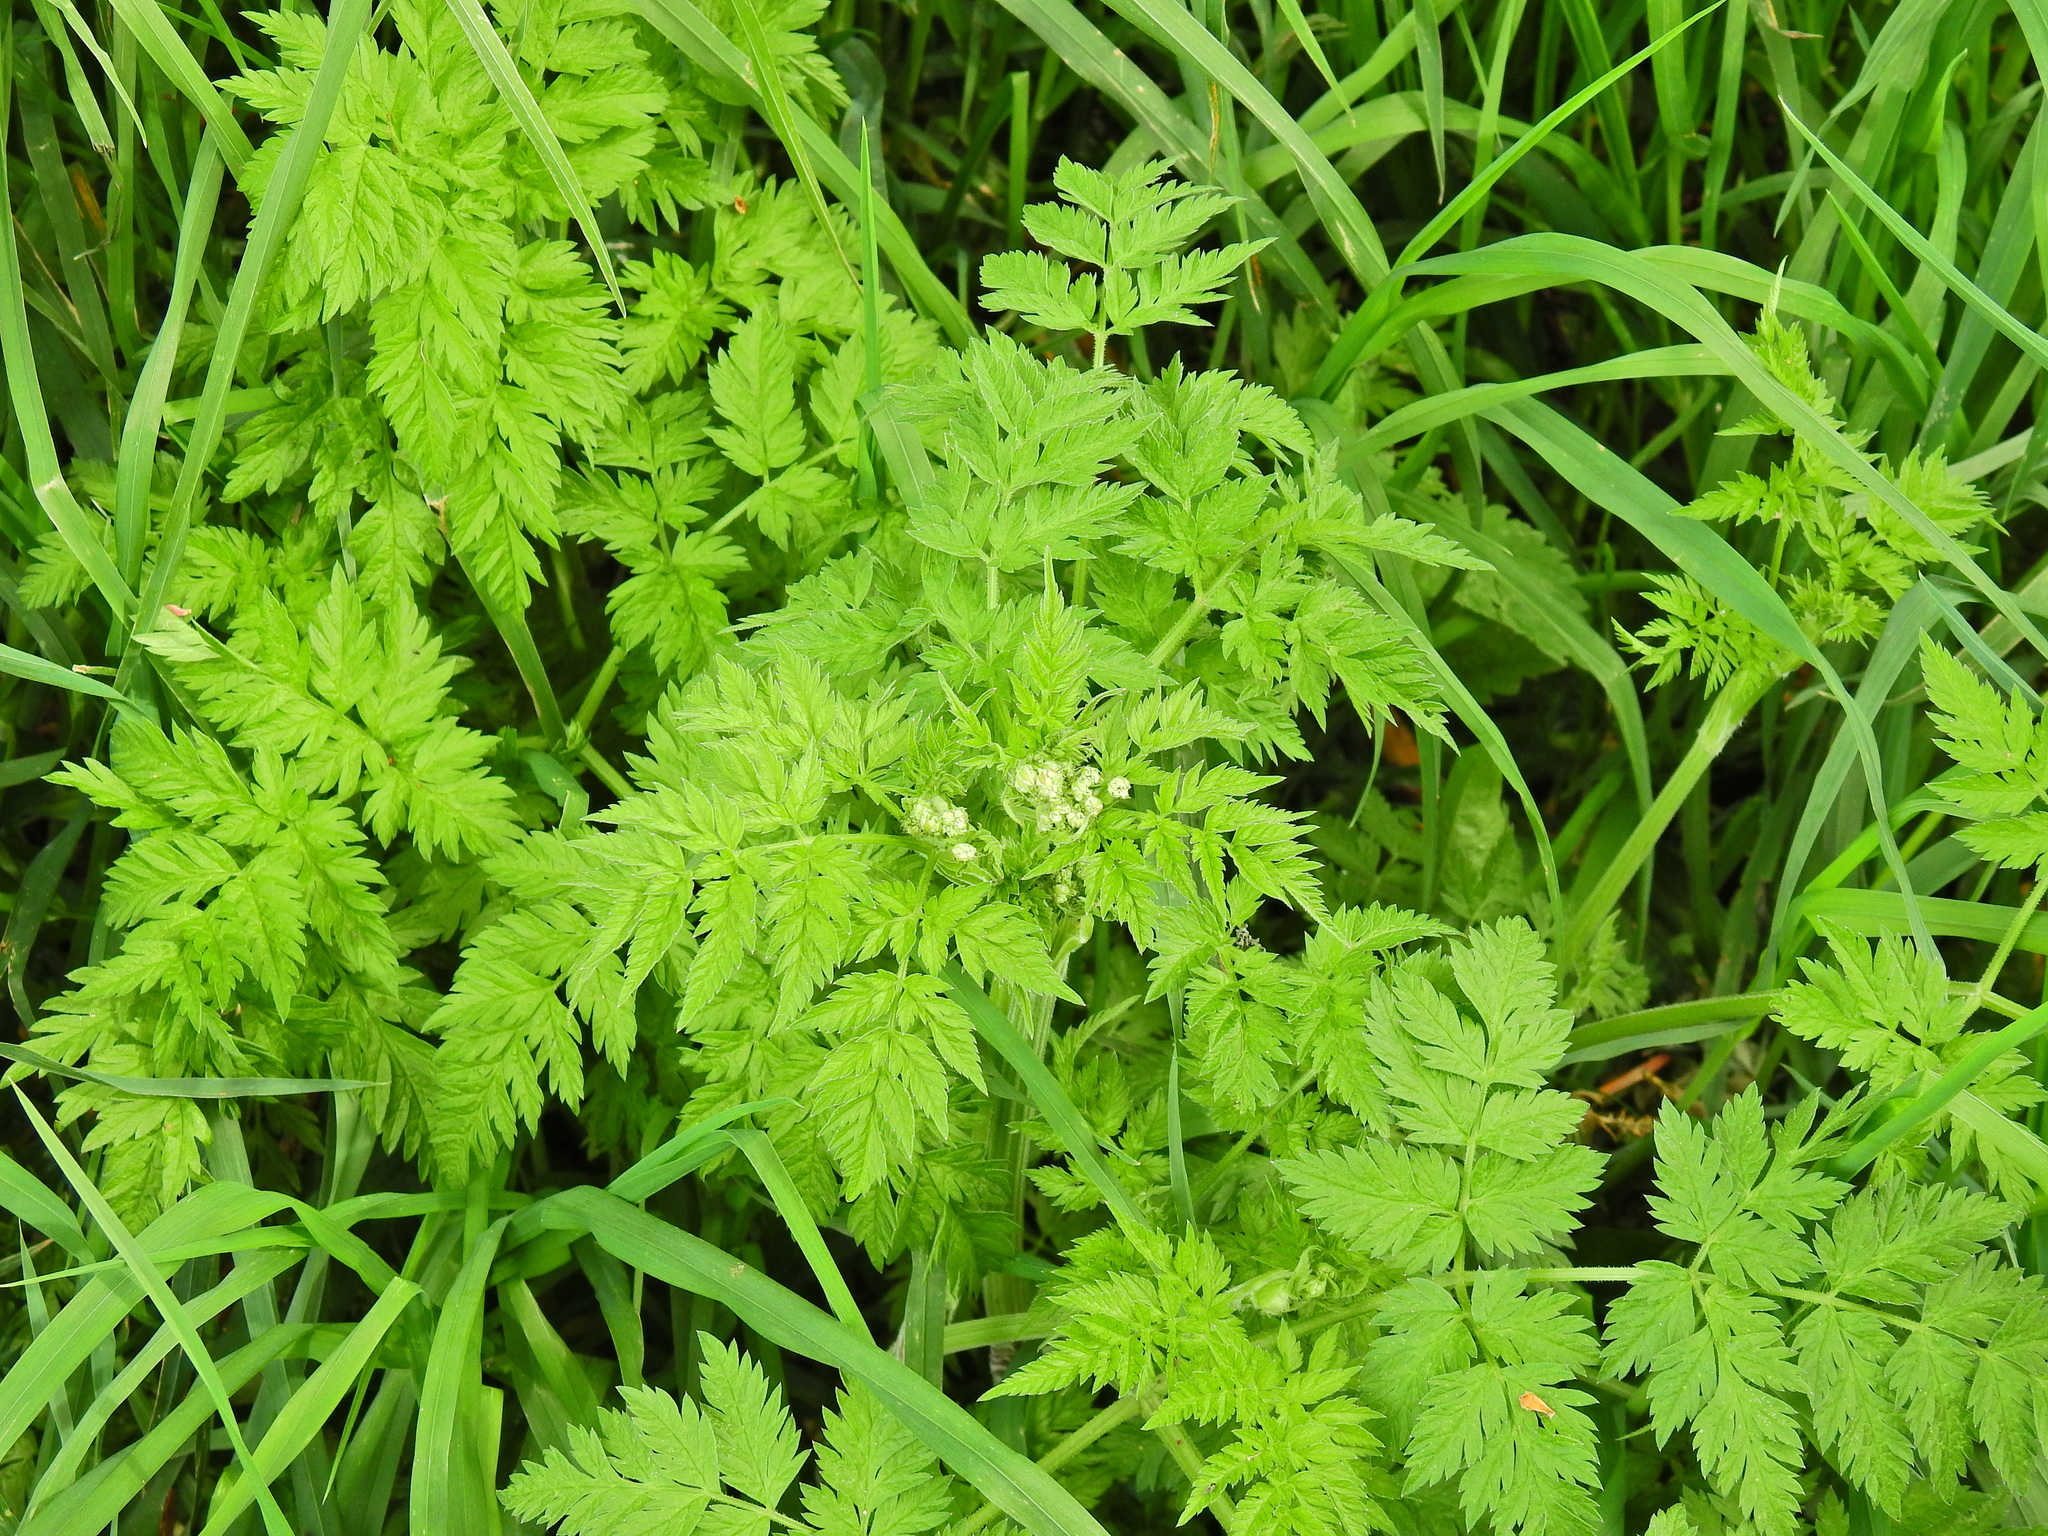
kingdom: Plantae
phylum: Tracheophyta
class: Magnoliopsida
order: Apiales
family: Apiaceae
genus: Anthriscus
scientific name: Anthriscus sylvestris
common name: Cow parsley
